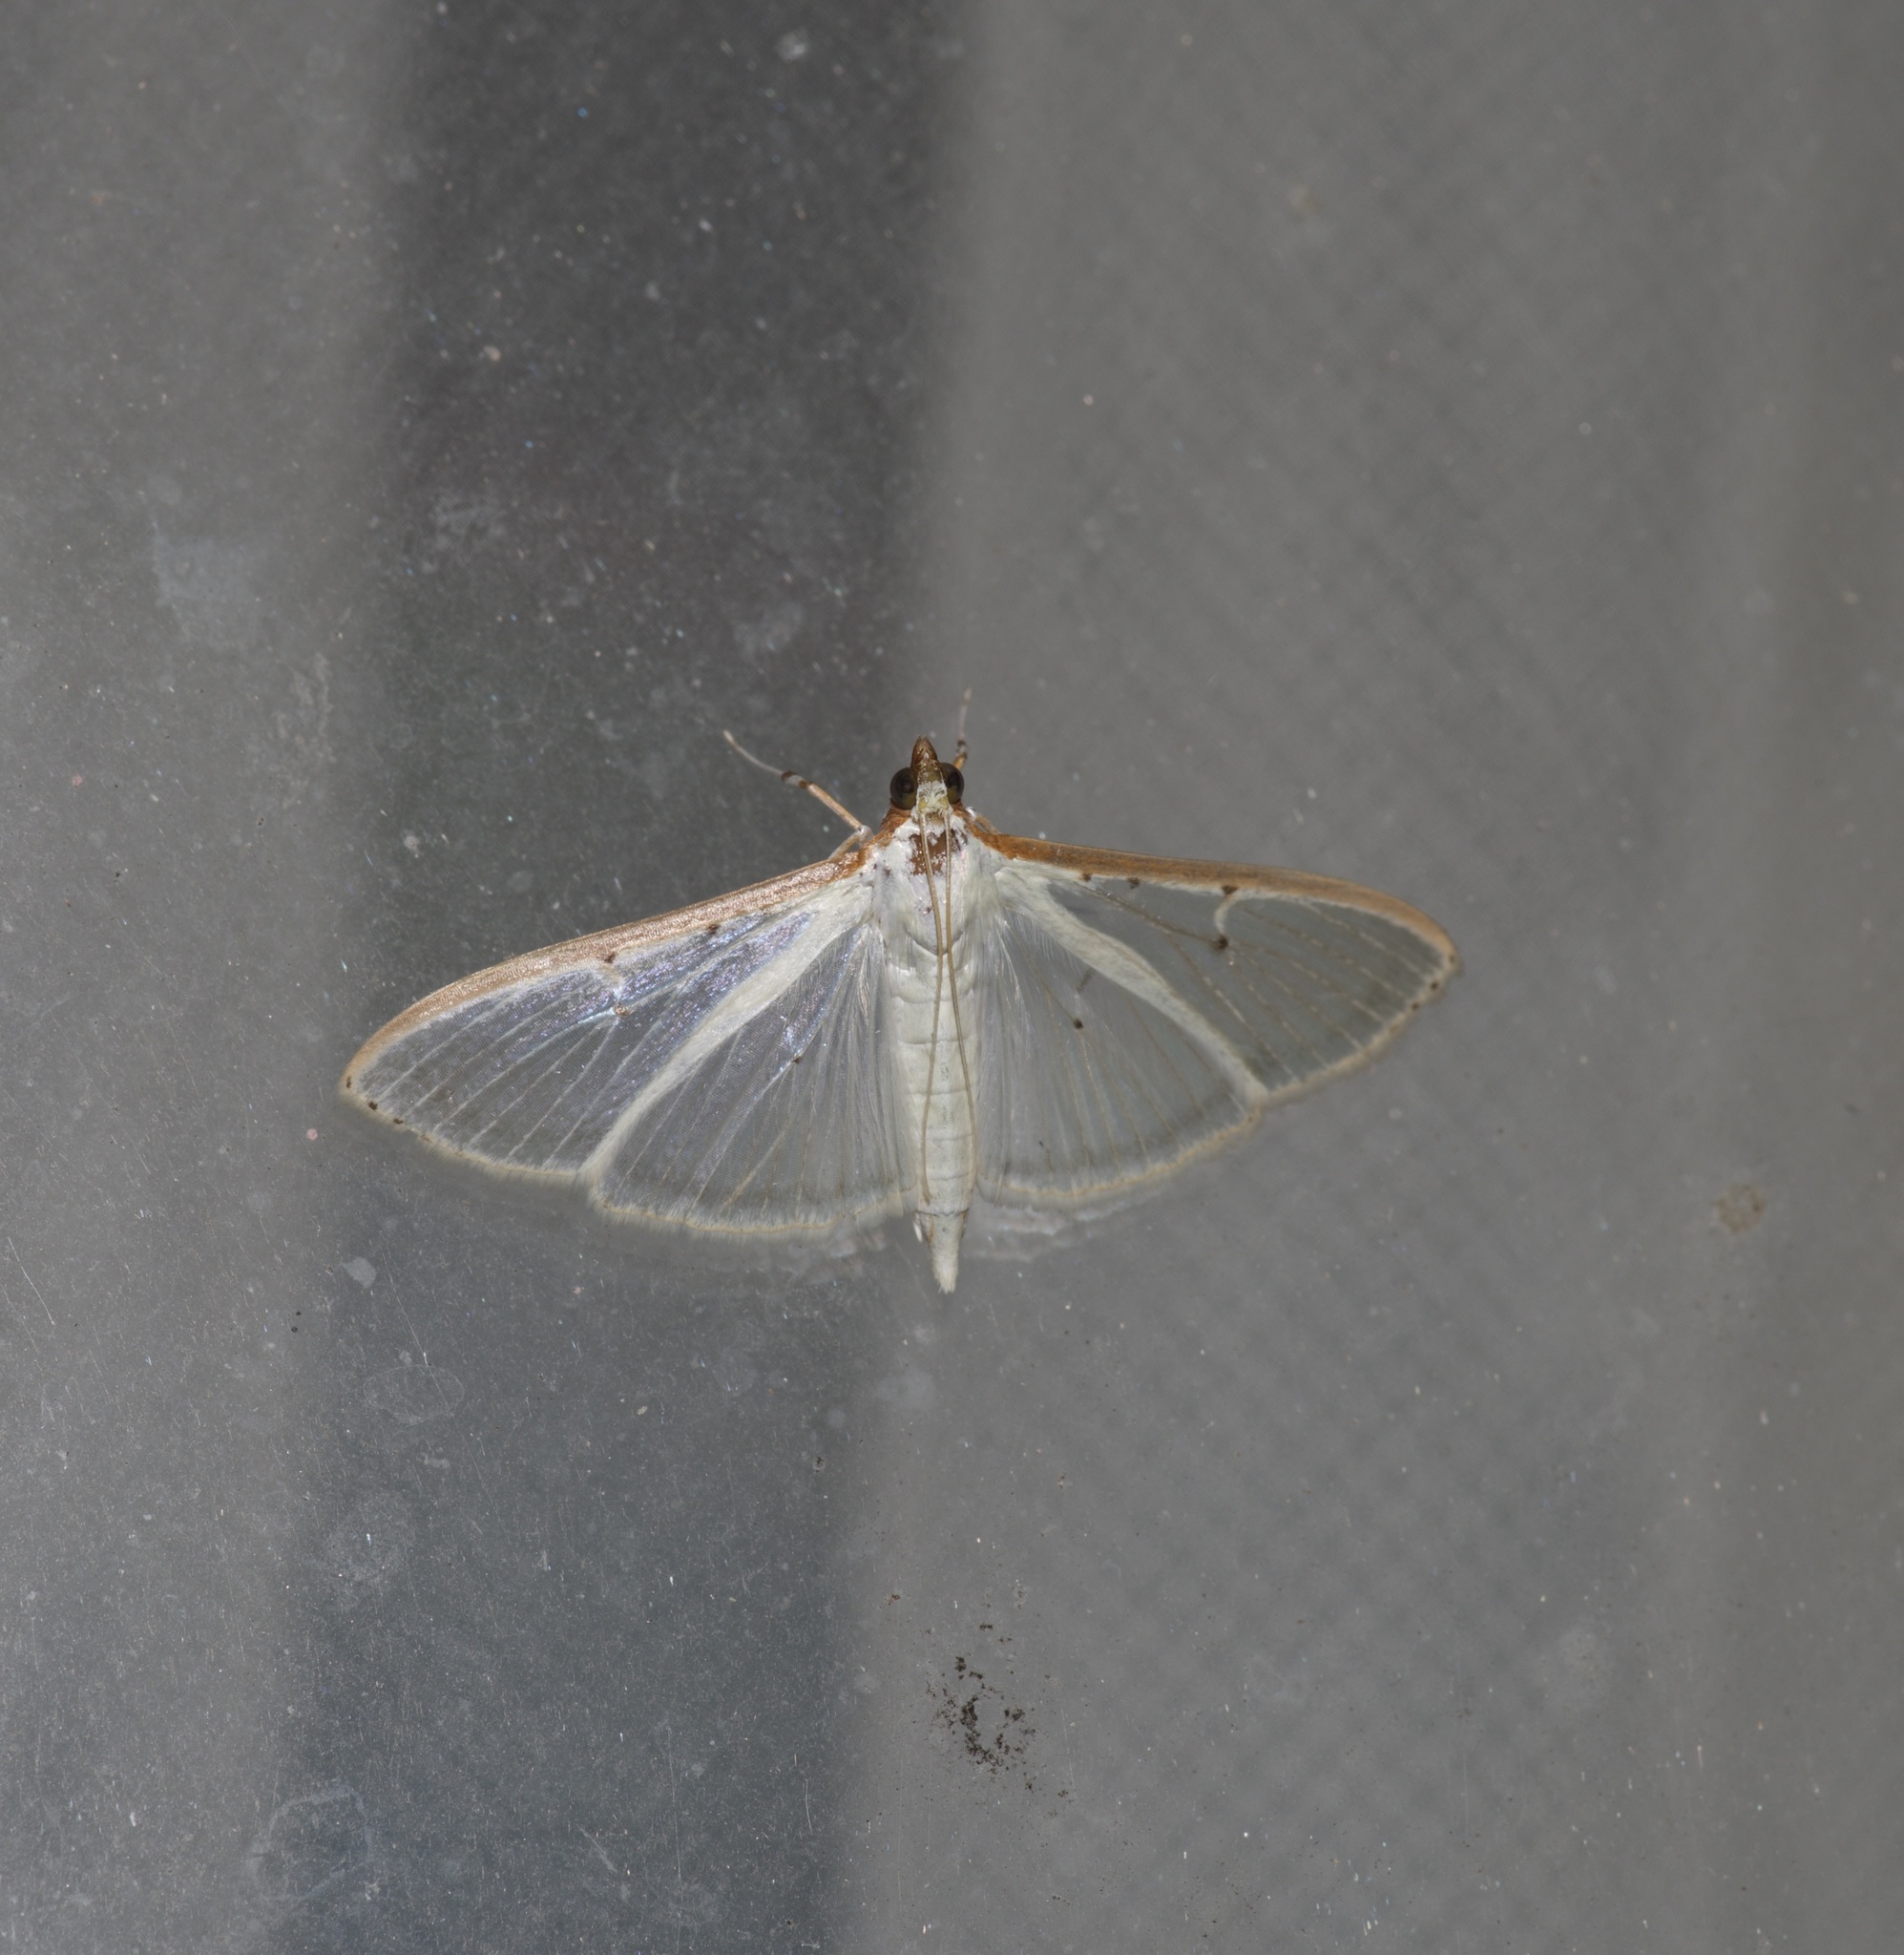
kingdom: Animalia
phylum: Arthropoda
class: Insecta
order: Lepidoptera
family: Crambidae
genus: Palpita
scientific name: Palpita quadristigmalis
